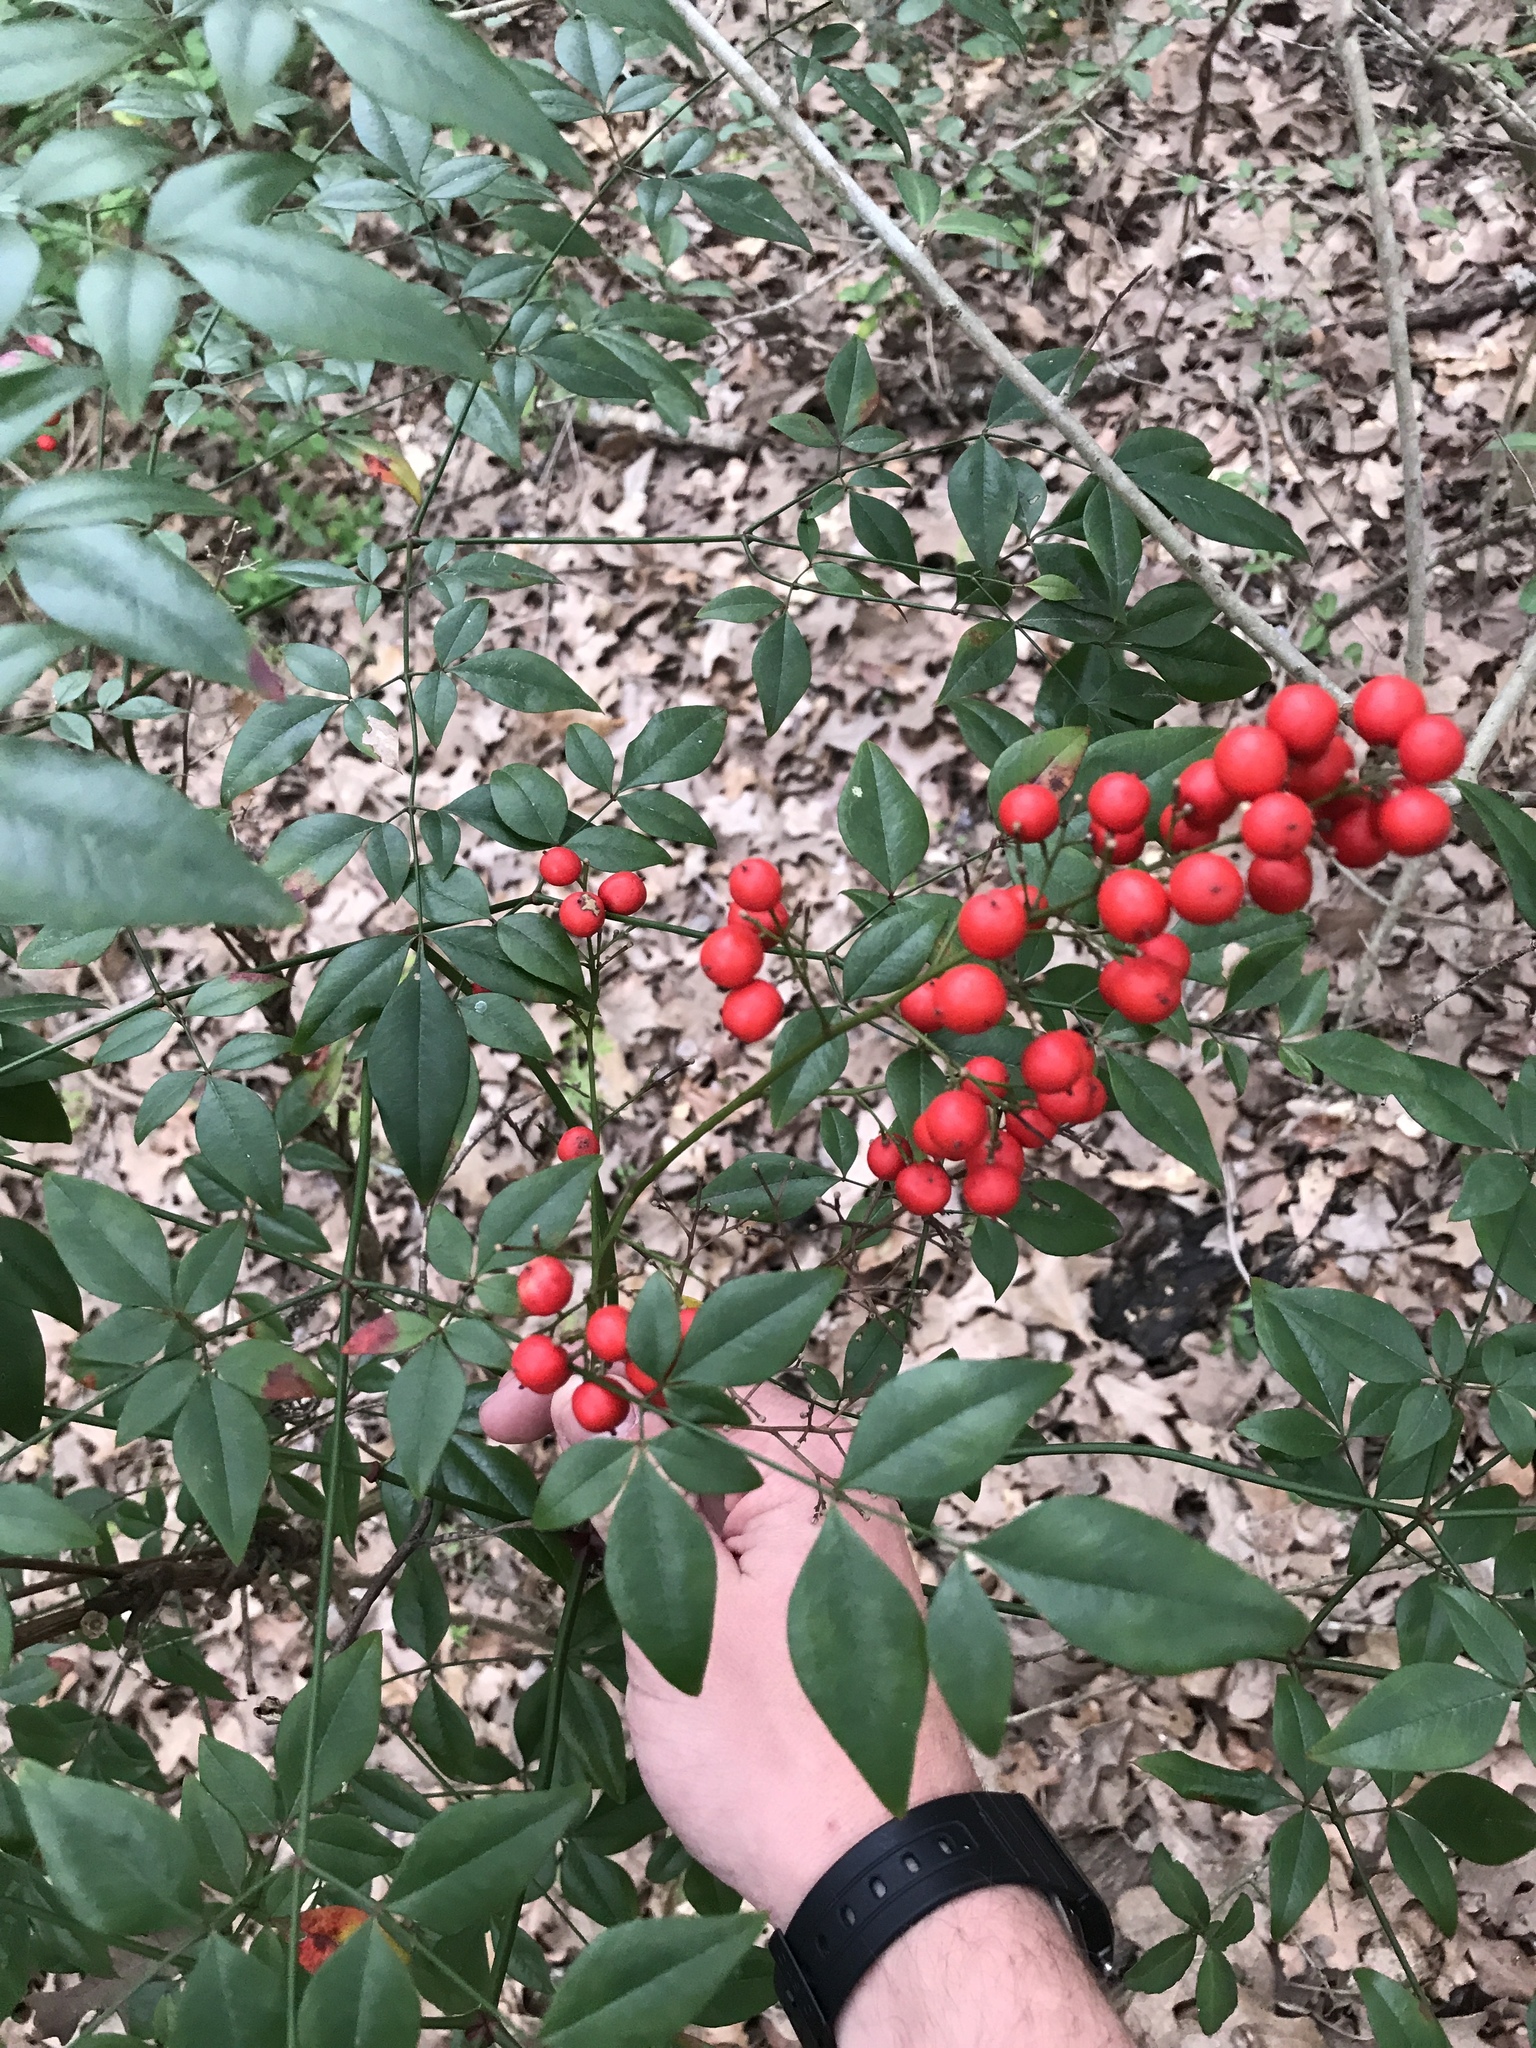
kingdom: Plantae
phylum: Tracheophyta
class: Magnoliopsida
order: Ranunculales
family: Berberidaceae
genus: Nandina
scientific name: Nandina domestica
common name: Sacred bamboo
